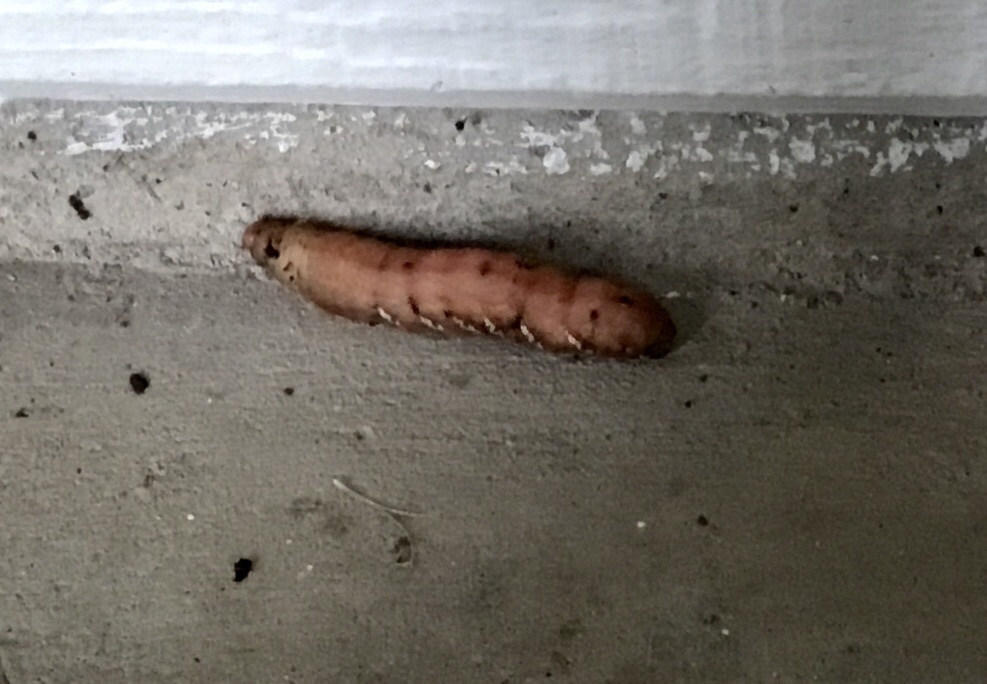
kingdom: Animalia
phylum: Arthropoda
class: Insecta
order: Lepidoptera
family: Sphingidae
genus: Eumorpha
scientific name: Eumorpha achemon
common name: Achemon sphinx
